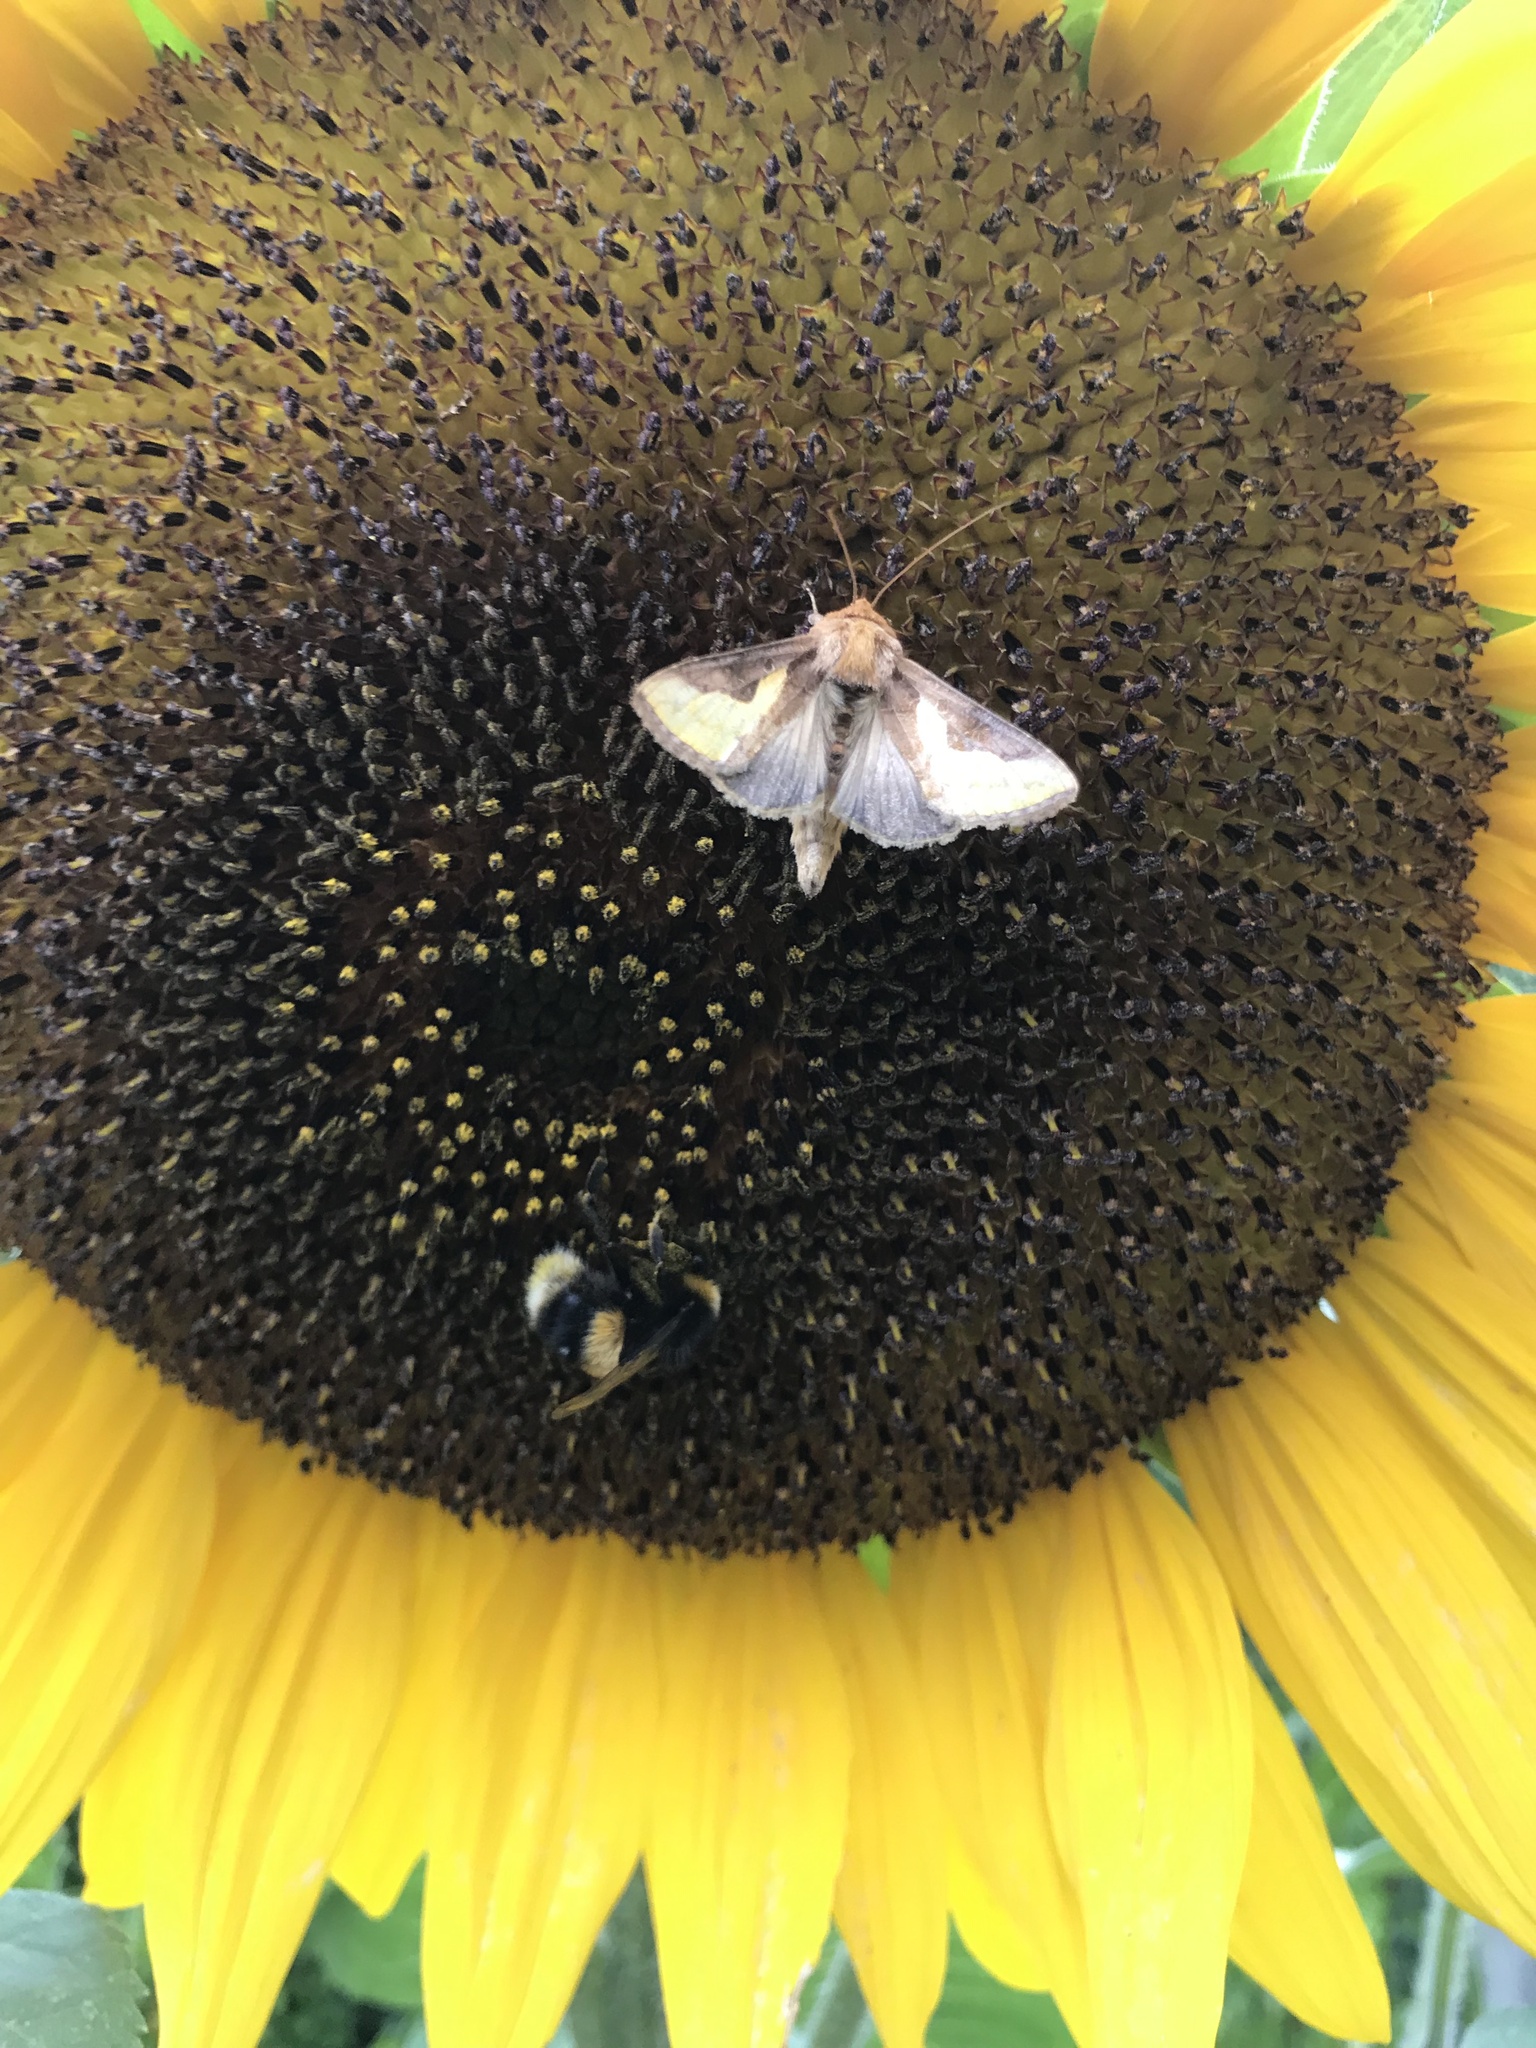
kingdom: Animalia
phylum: Arthropoda
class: Insecta
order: Lepidoptera
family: Noctuidae
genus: Thysanoplusia
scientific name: Thysanoplusia orichalcea
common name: Slender burnished brass, golden plusia
